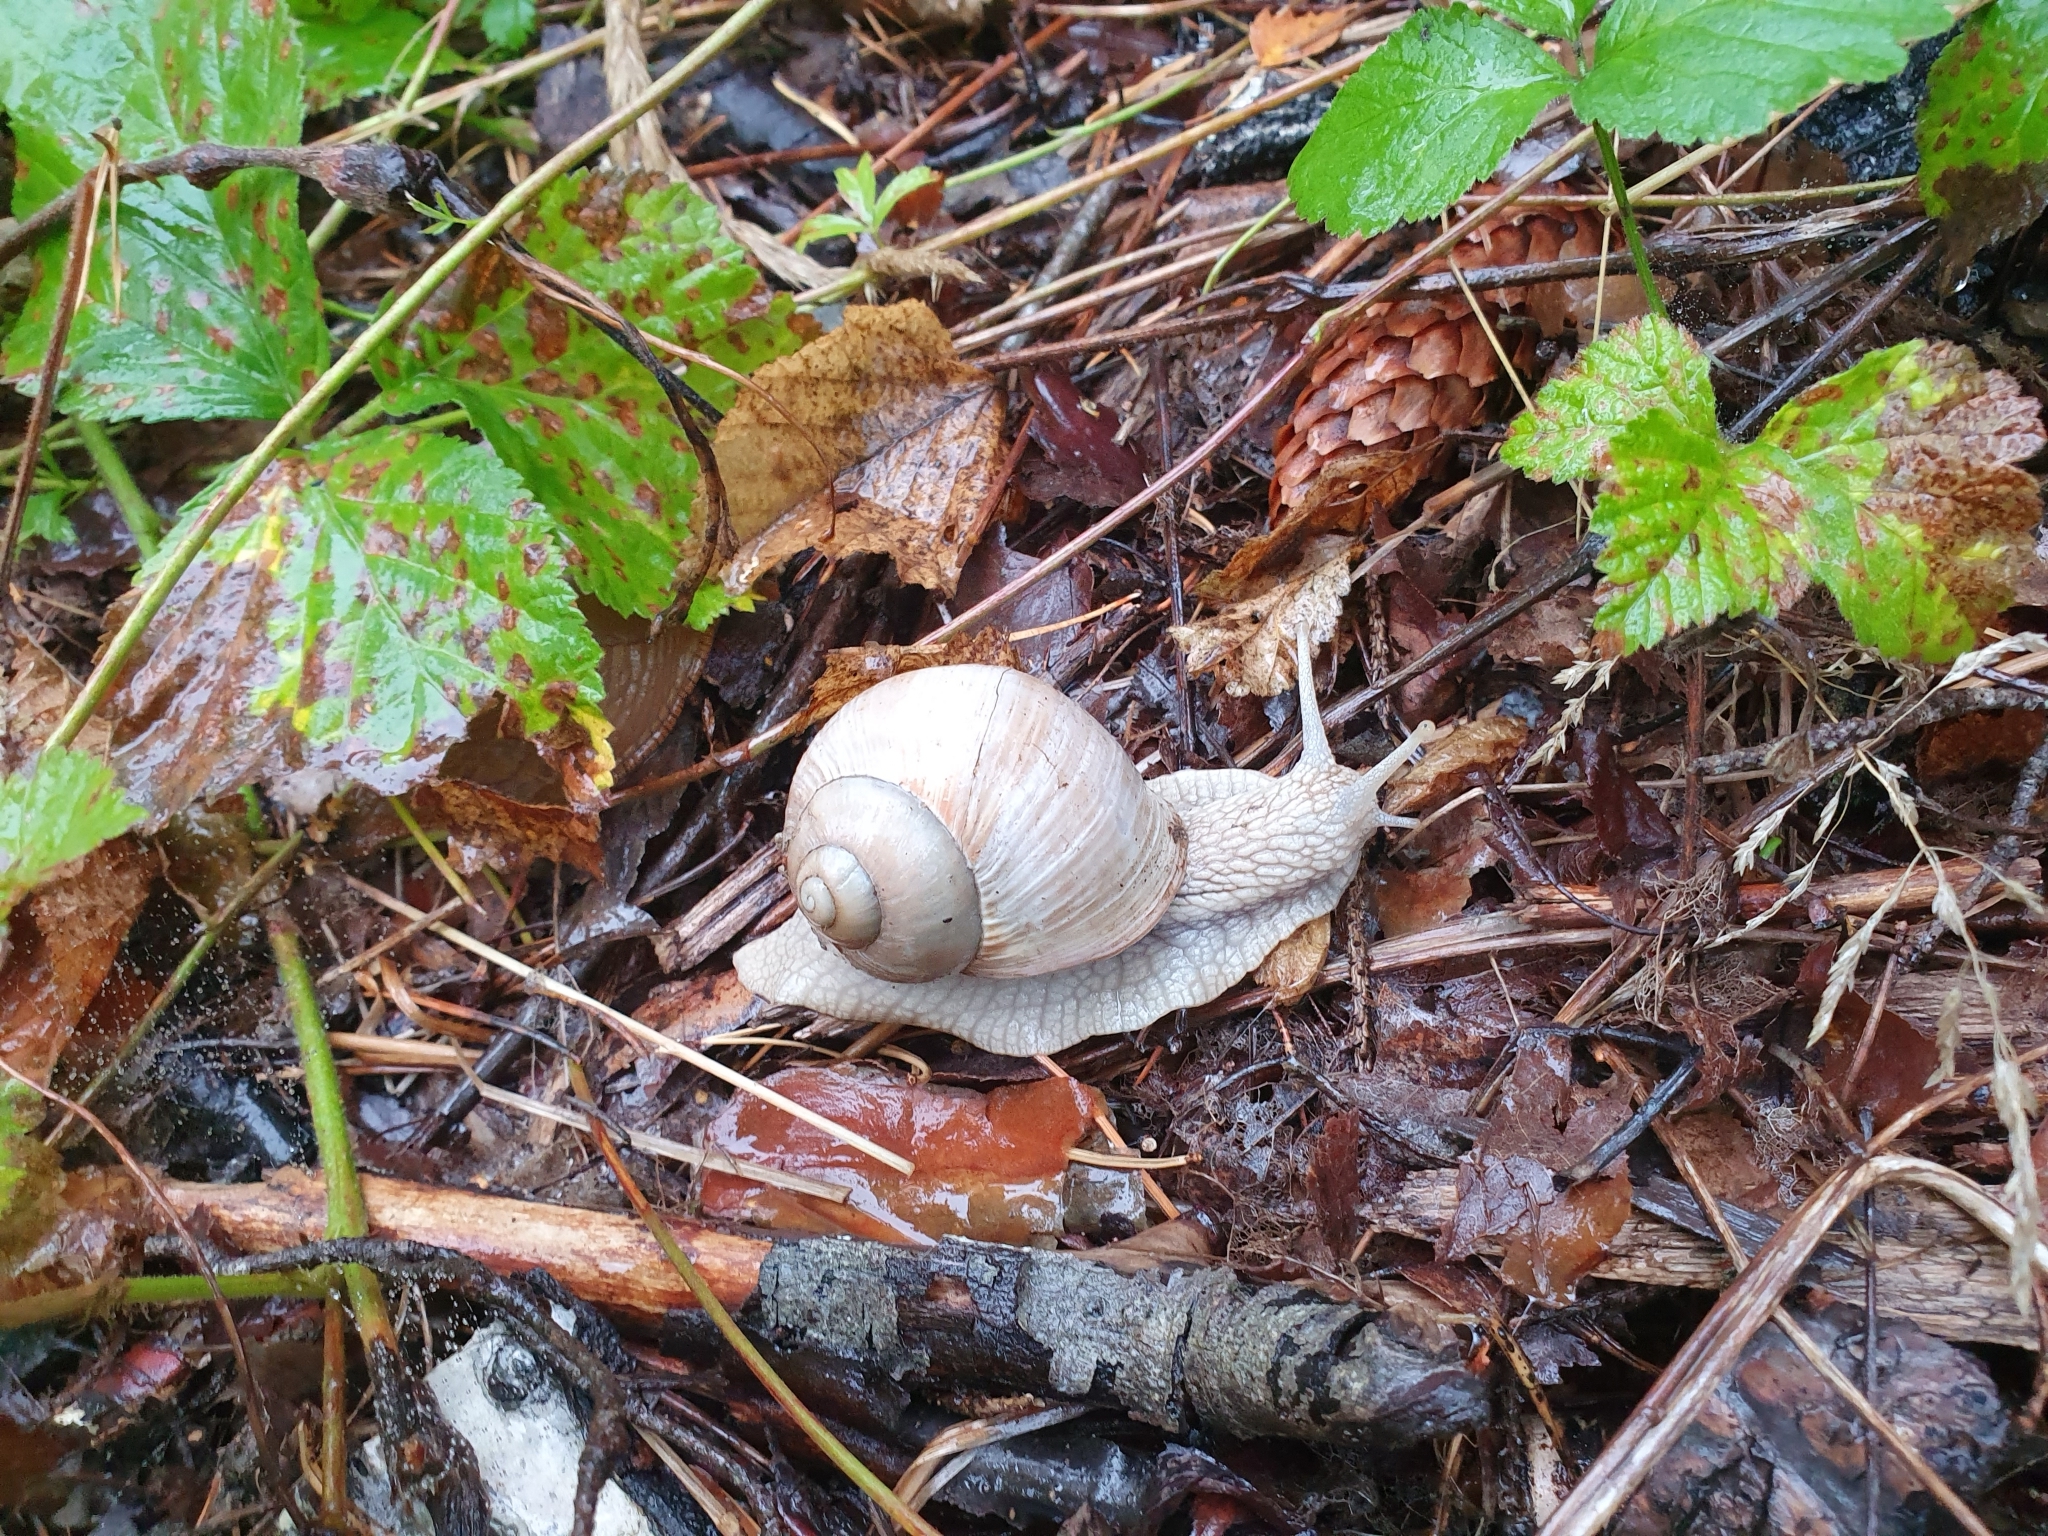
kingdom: Animalia
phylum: Mollusca
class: Gastropoda
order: Stylommatophora
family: Helicidae
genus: Helix
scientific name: Helix pomatia
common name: Roman snail
